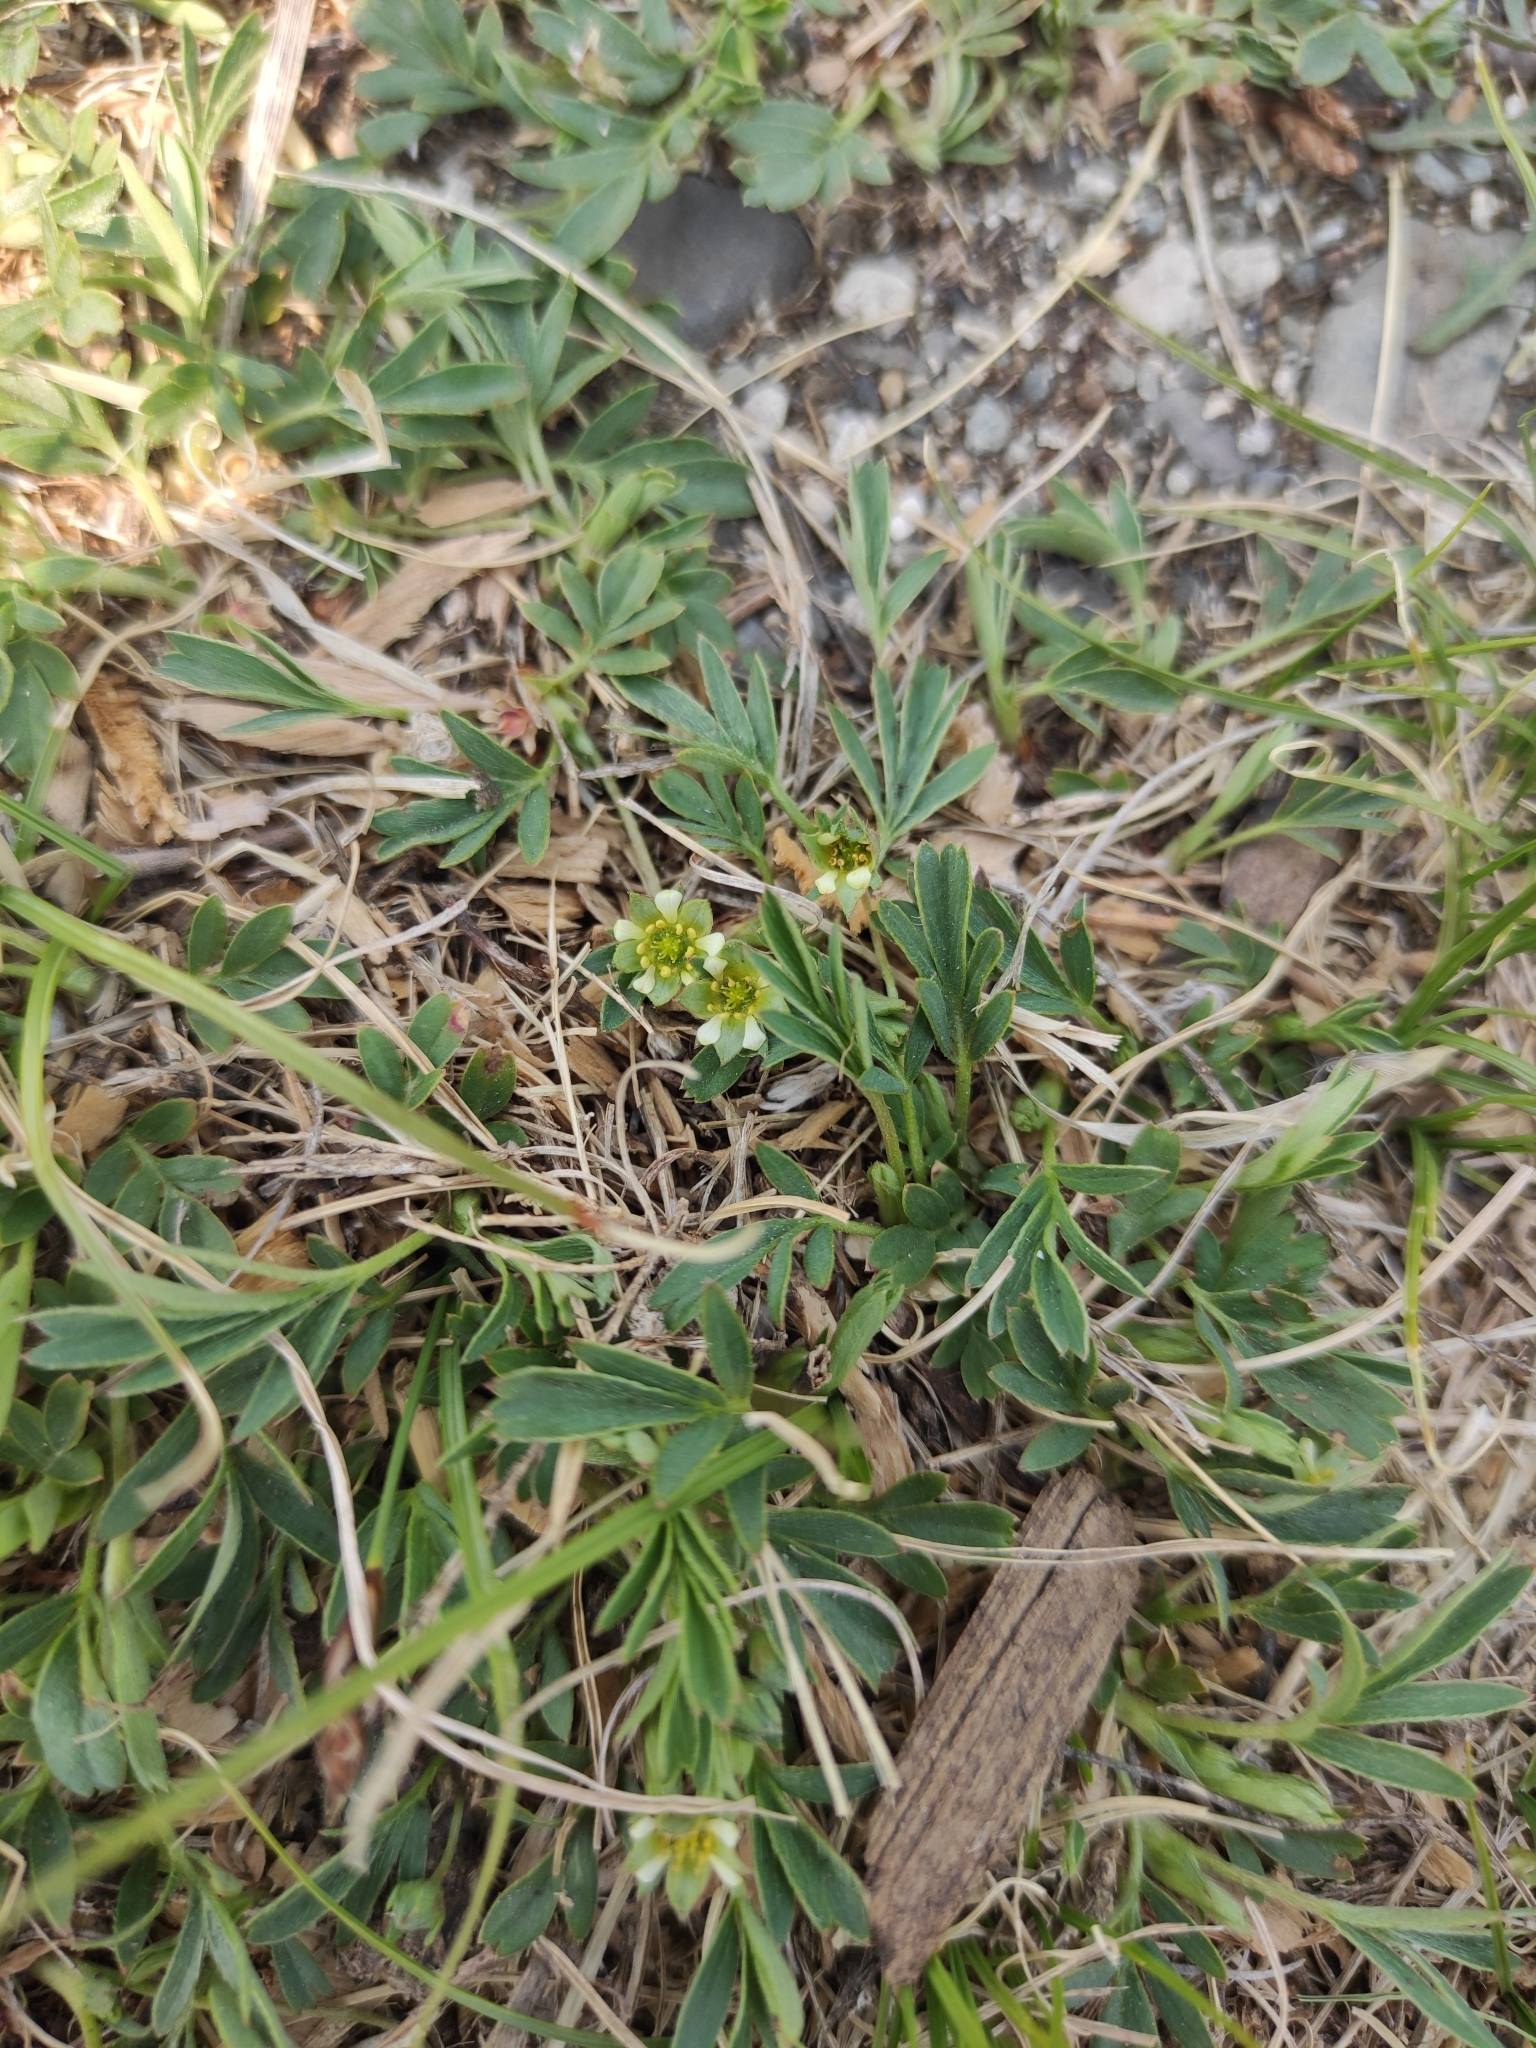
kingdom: Plantae
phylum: Tracheophyta
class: Magnoliopsida
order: Rosales
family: Rosaceae
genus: Sibbaldianthe
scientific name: Sibbaldianthe adpressa
